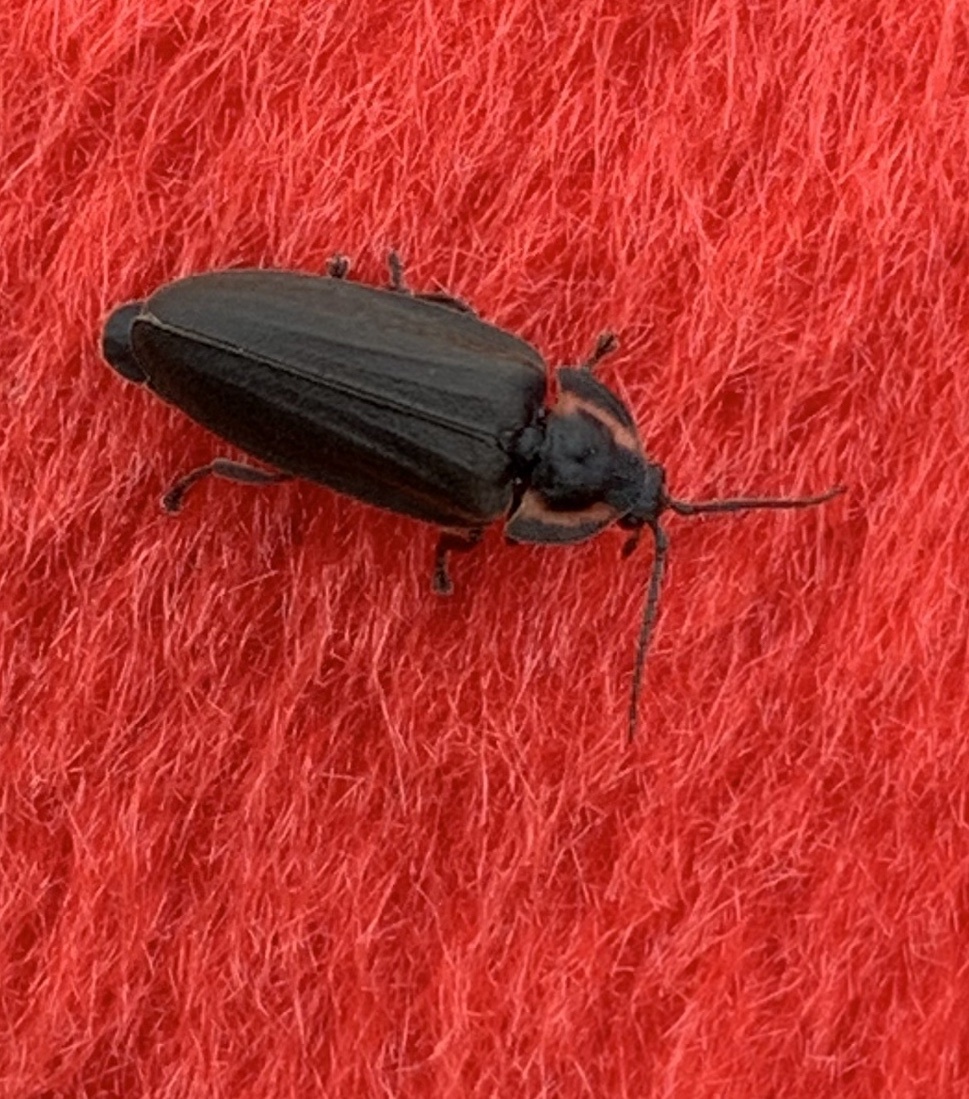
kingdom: Animalia
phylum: Arthropoda
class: Insecta
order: Coleoptera
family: Lampyridae
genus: Photinus
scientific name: Photinus corrusca
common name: Winter firefly
